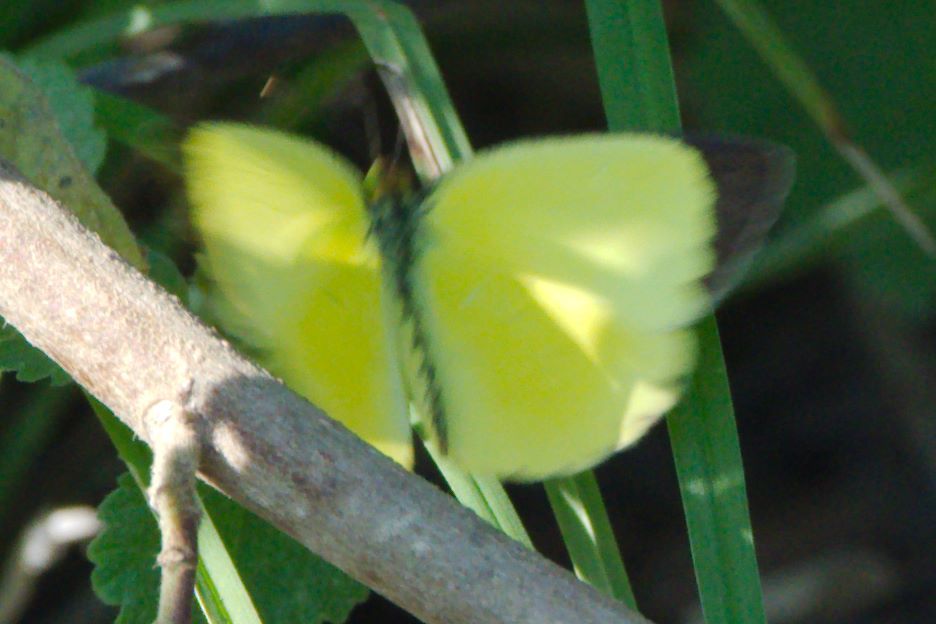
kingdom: Animalia
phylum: Arthropoda
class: Insecta
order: Lepidoptera
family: Pieridae
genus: Pyrisitia
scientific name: Pyrisitia nise
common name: Mimosa yellow
